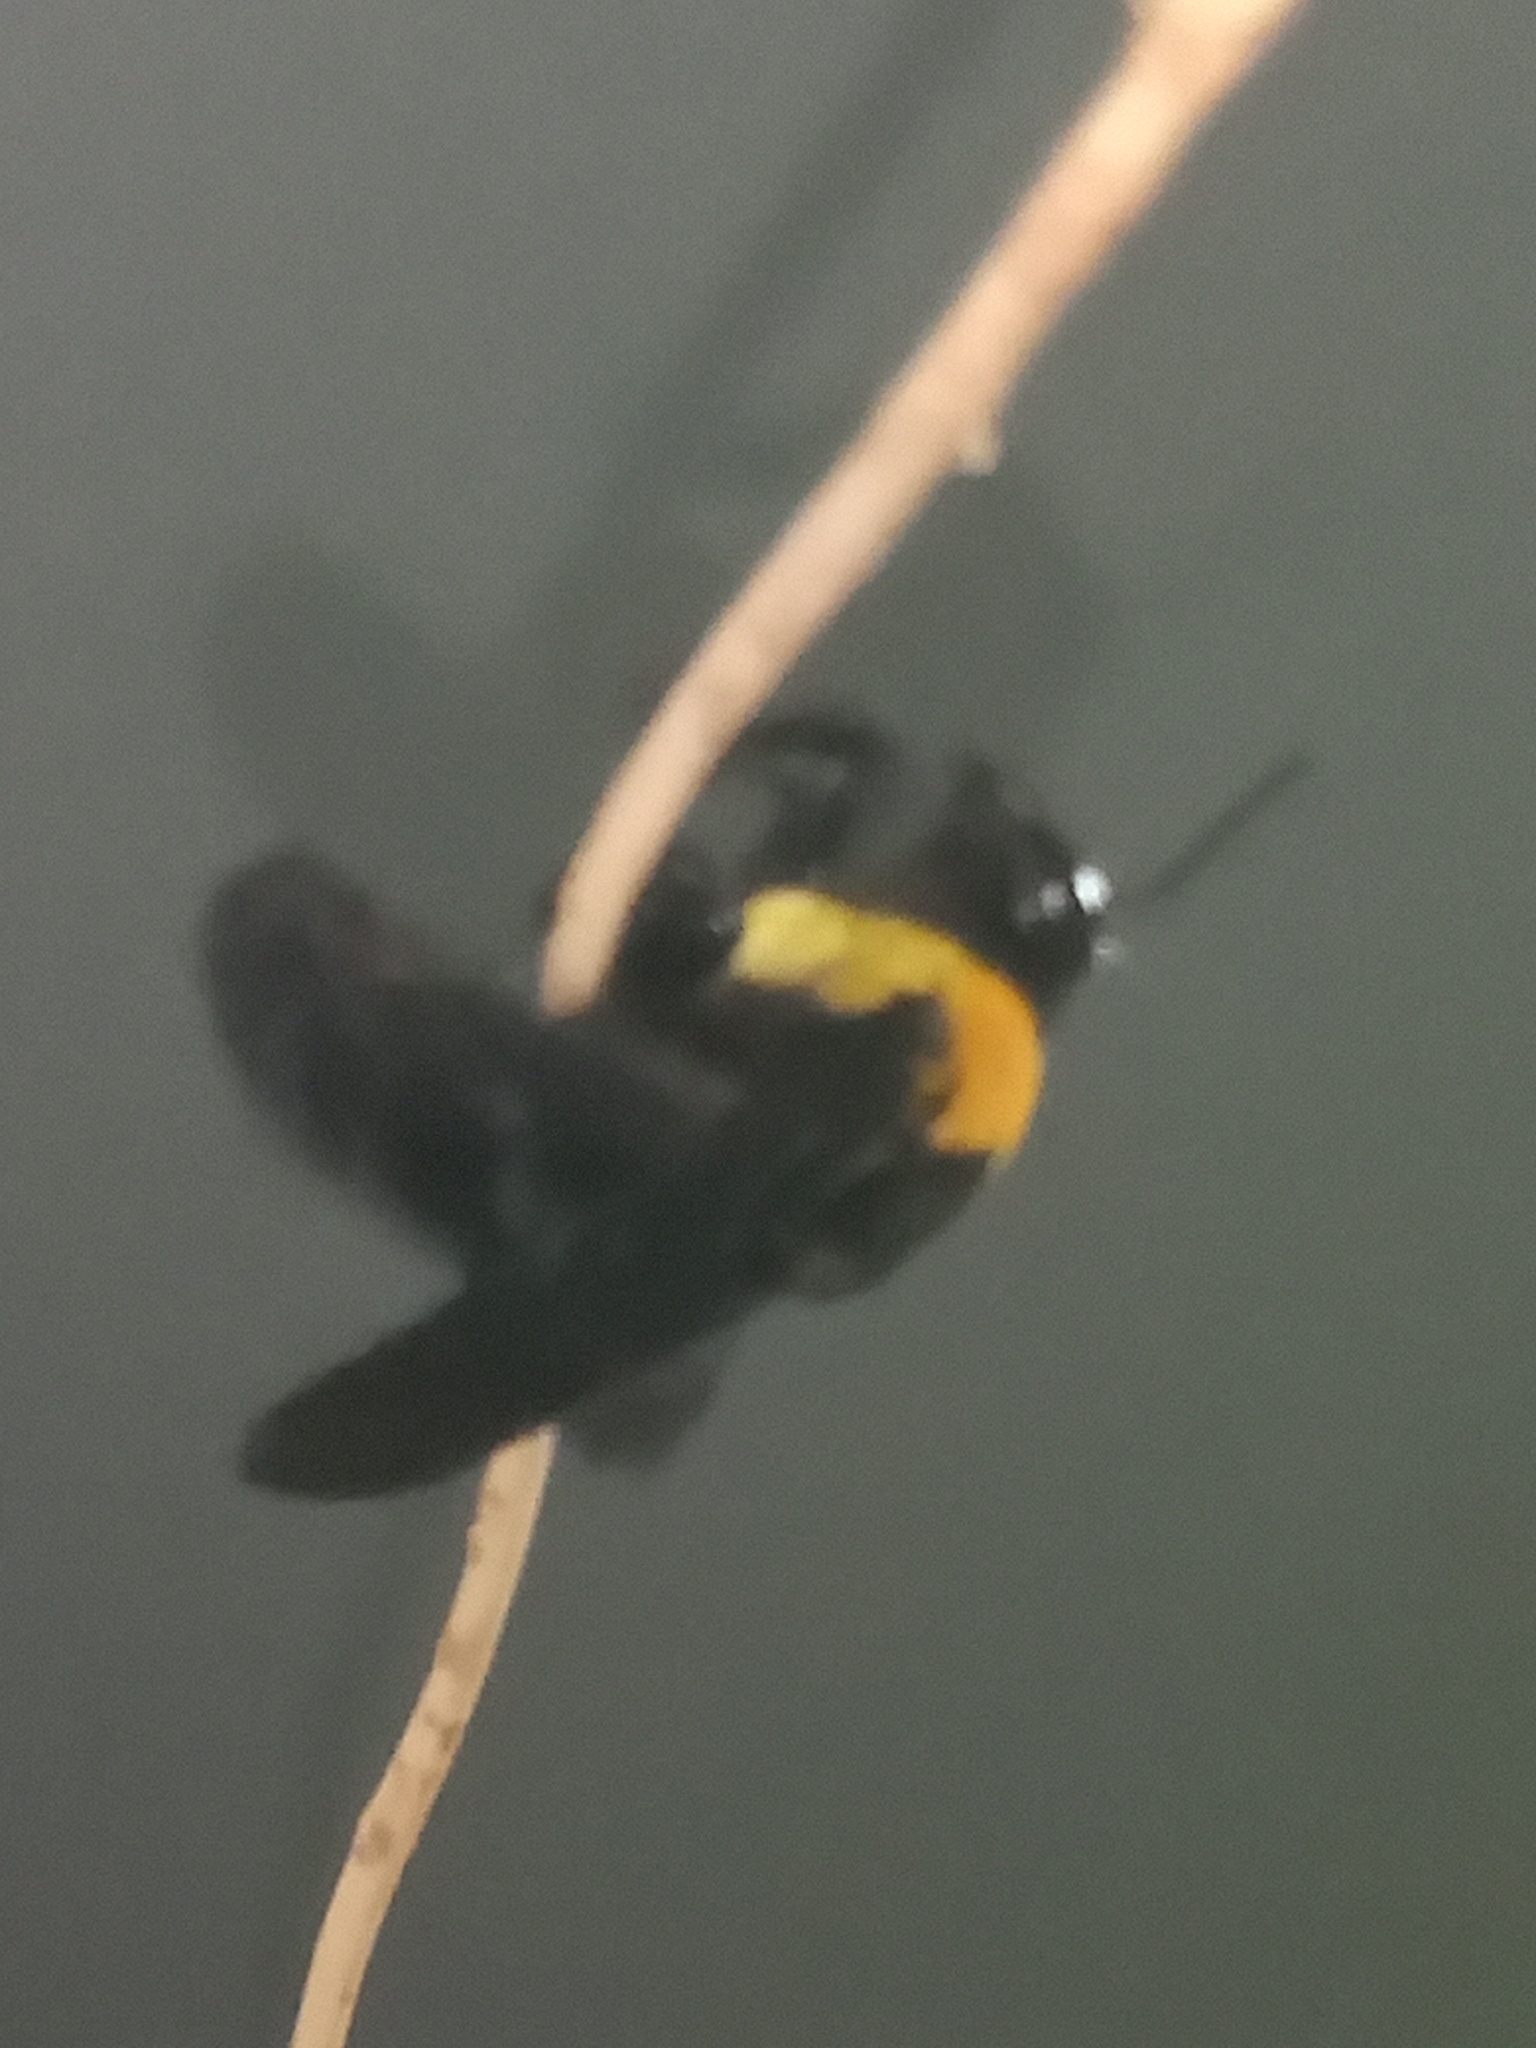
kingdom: Animalia
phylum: Arthropoda
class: Insecta
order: Hymenoptera
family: Apidae
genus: Centris
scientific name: Centris scopipes
